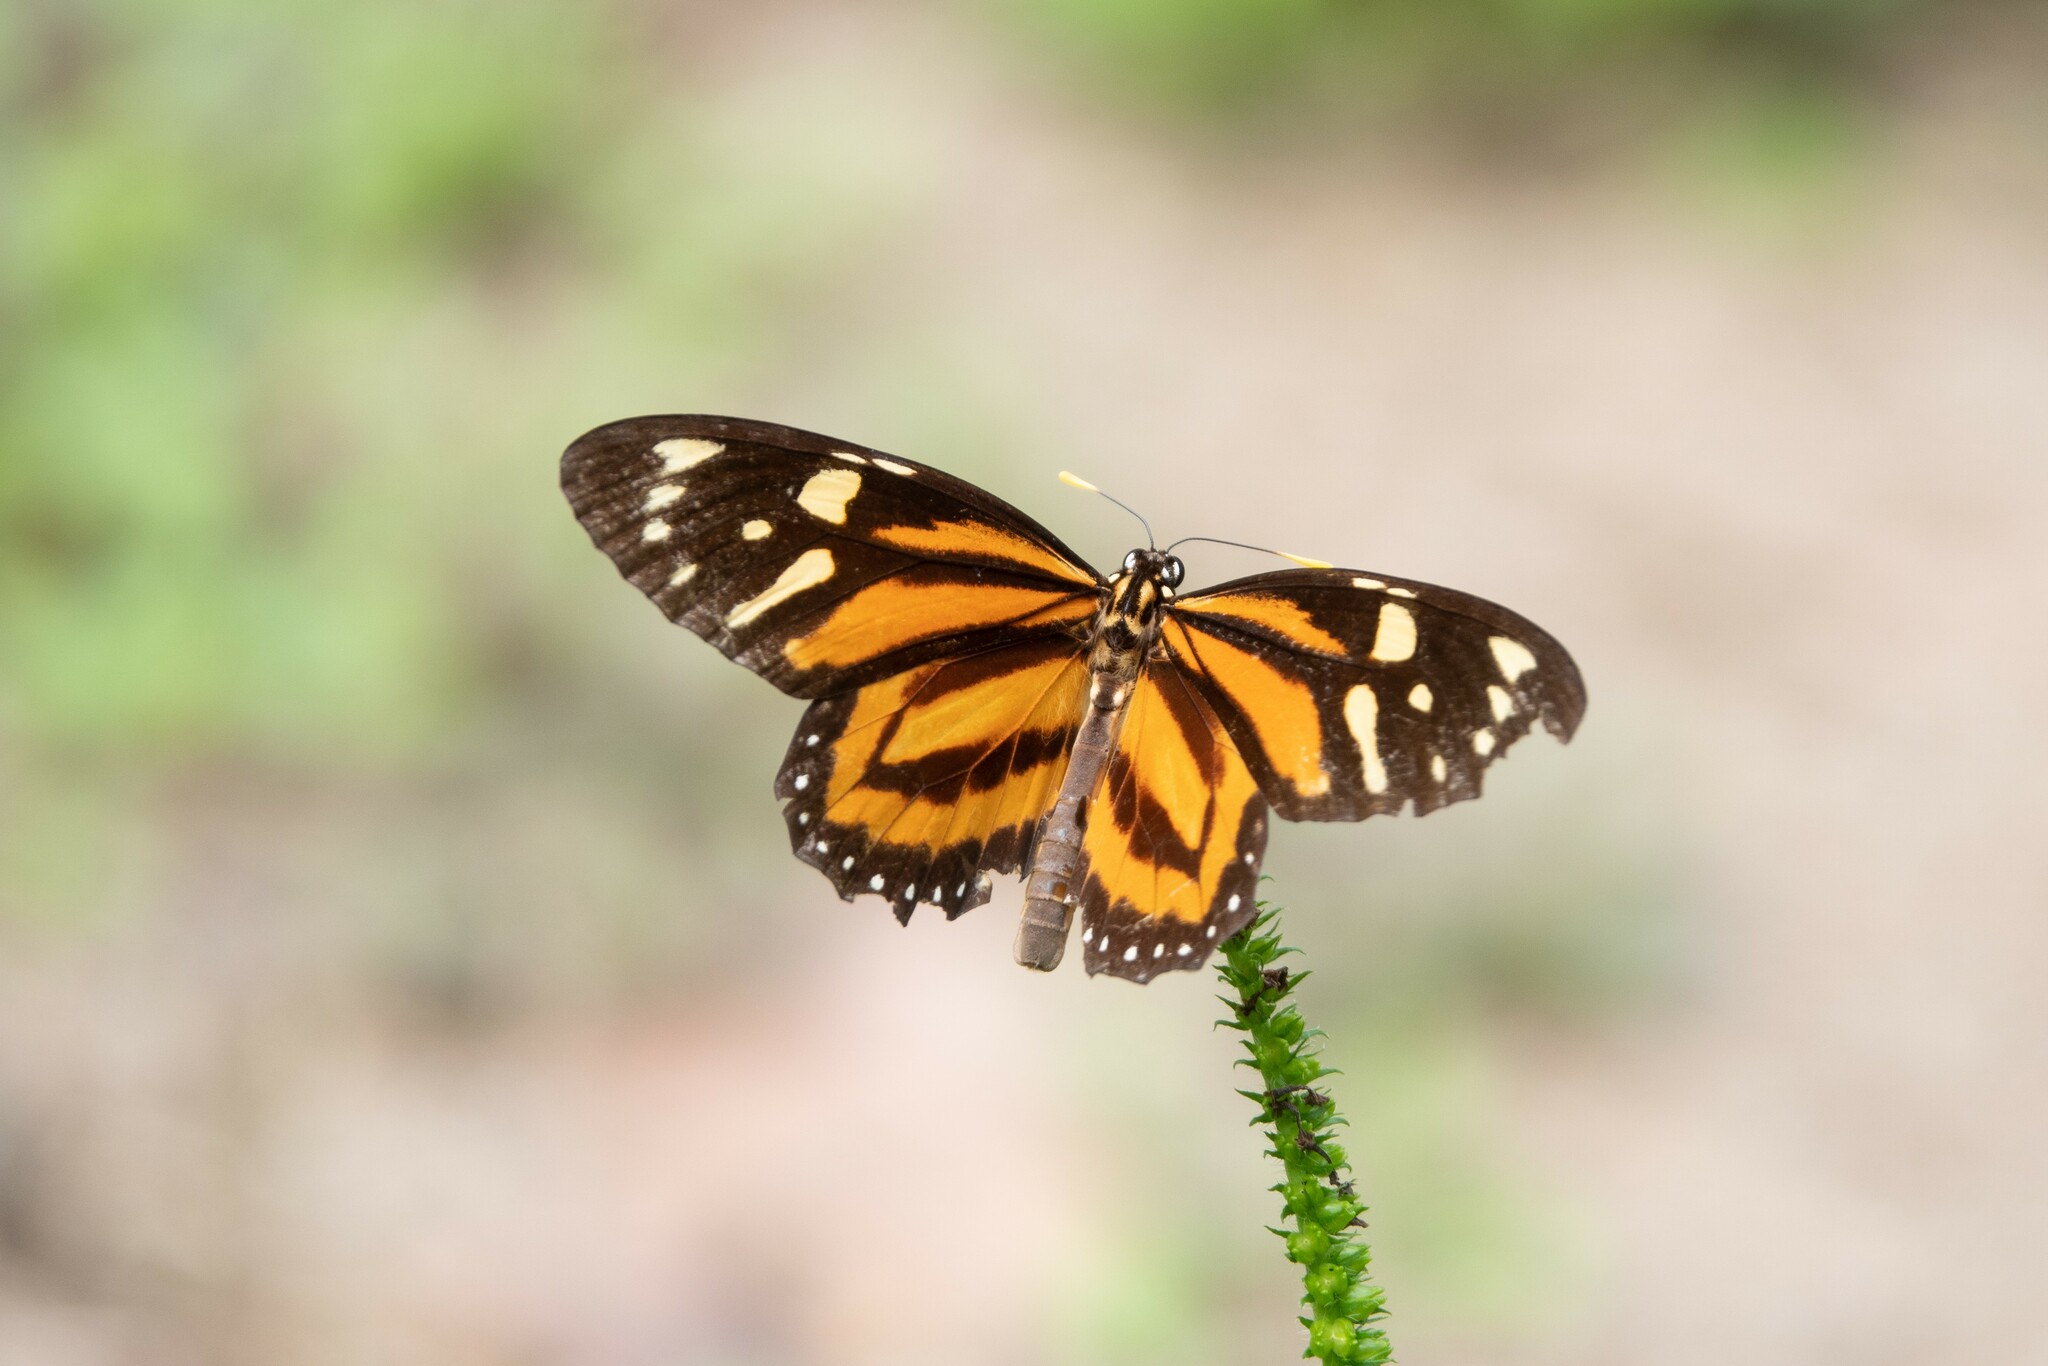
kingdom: Animalia
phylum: Arthropoda
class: Insecta
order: Lepidoptera
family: Nymphalidae
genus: Lycorea
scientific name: Lycorea cleobaea
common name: Tiger mimic-queen
